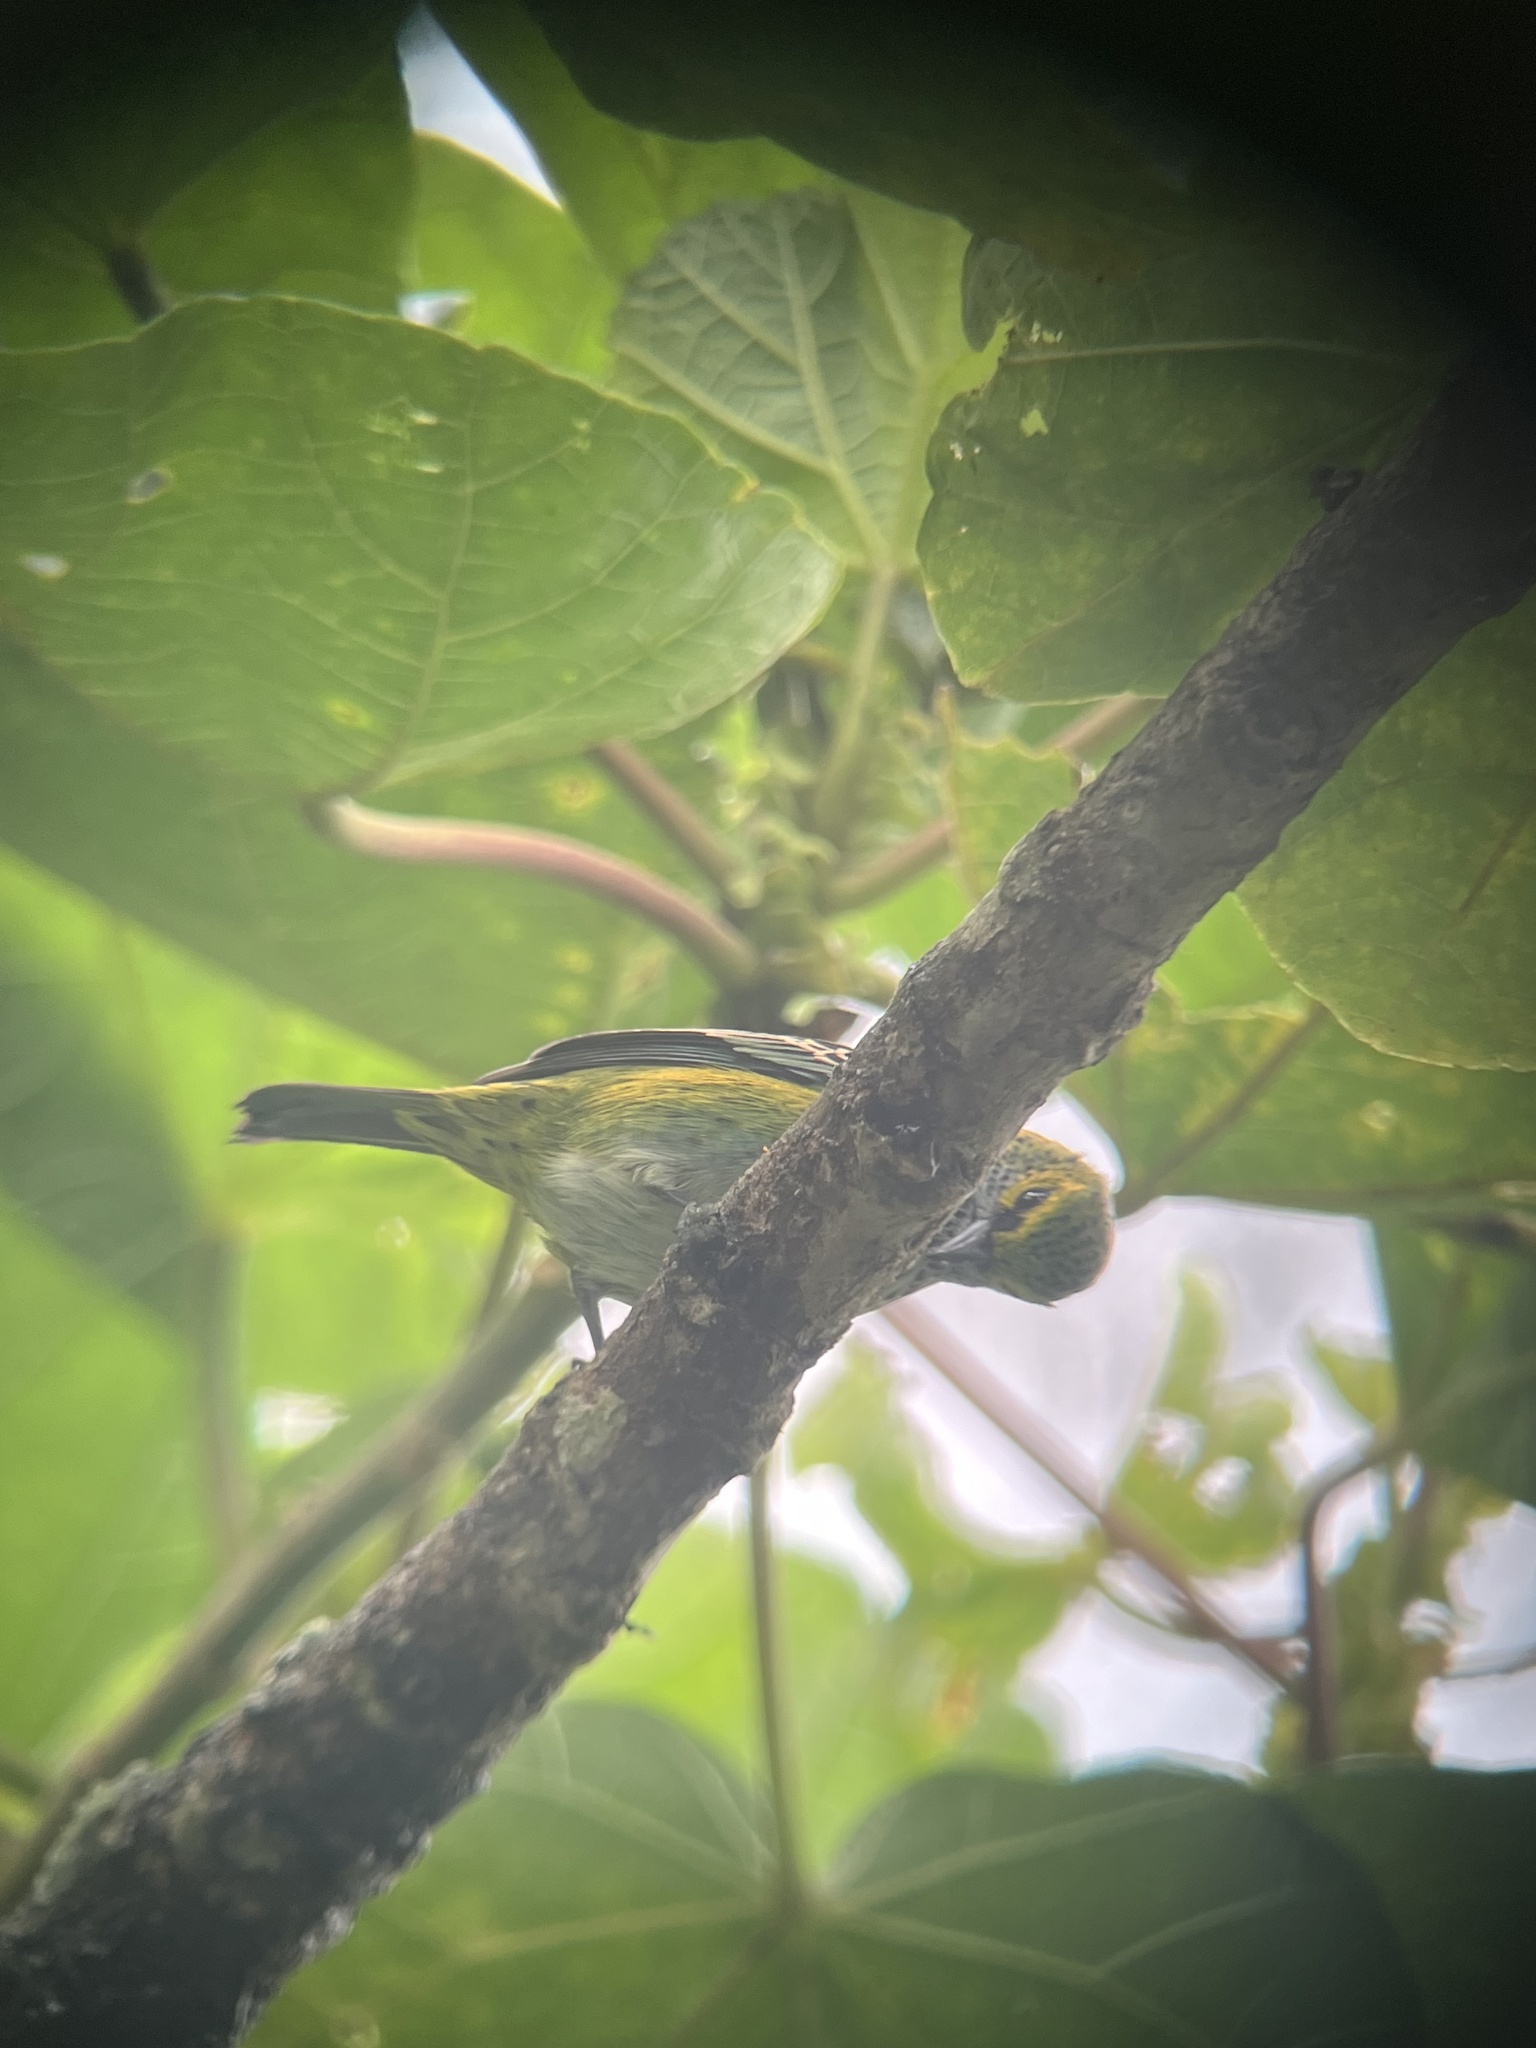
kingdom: Animalia
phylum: Chordata
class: Aves
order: Passeriformes
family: Thraupidae
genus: Ixothraupis
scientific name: Ixothraupis guttata
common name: Speckled tanager
